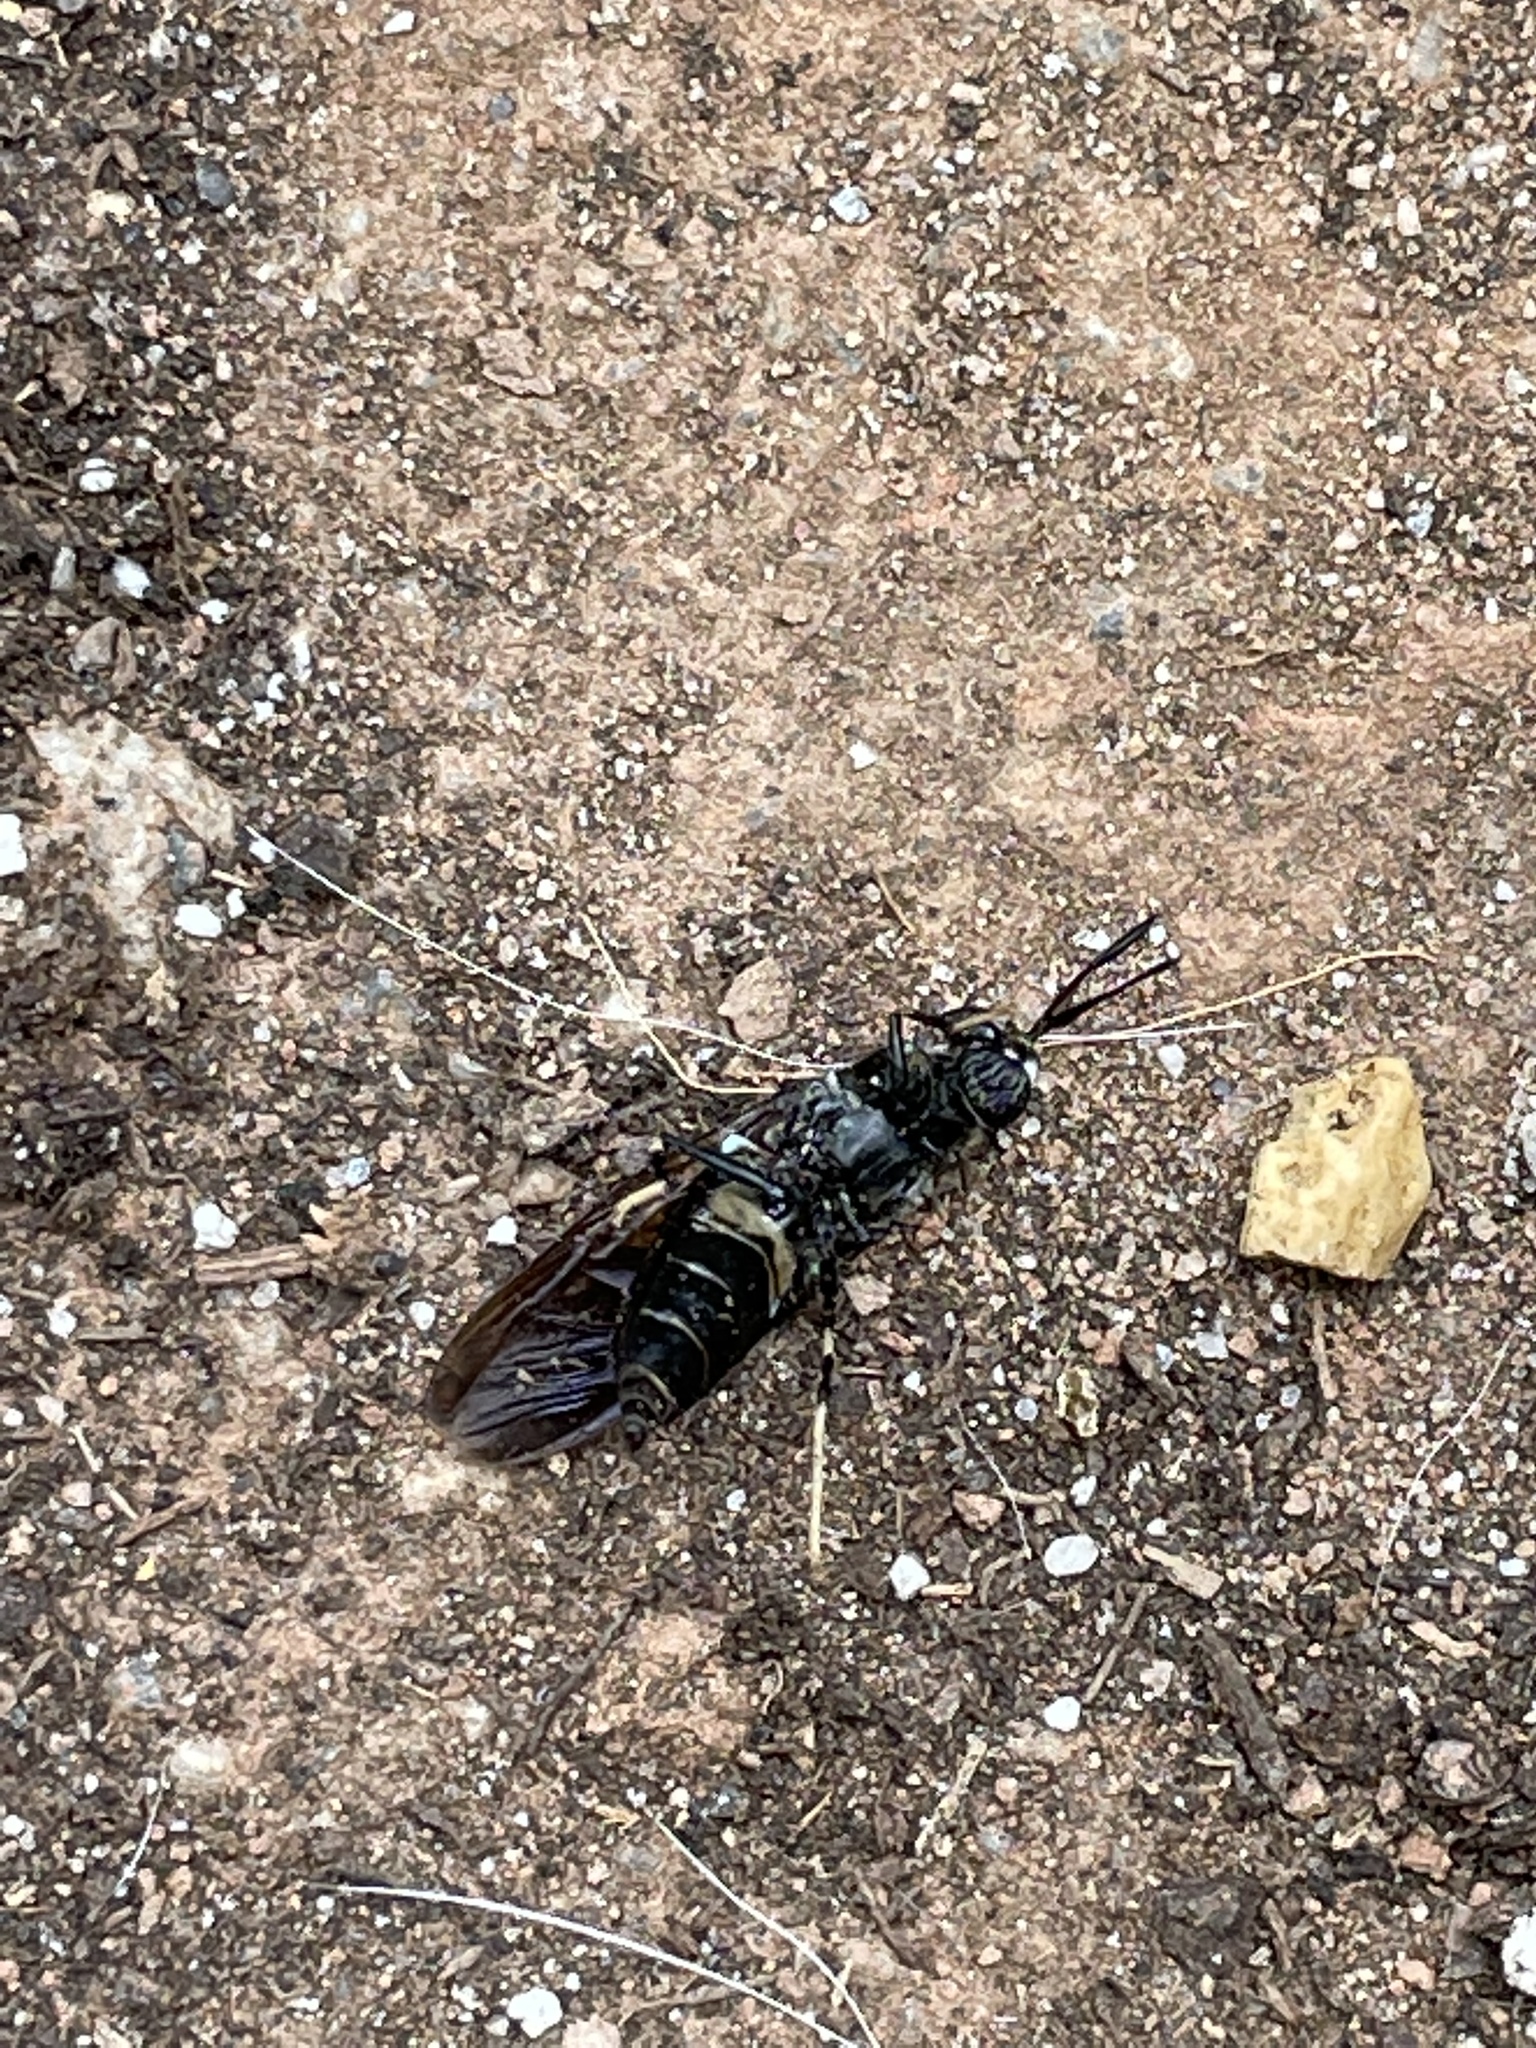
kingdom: Animalia
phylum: Arthropoda
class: Insecta
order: Diptera
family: Stratiomyidae
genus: Hermetia
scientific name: Hermetia illucens
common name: Black soldier fly
